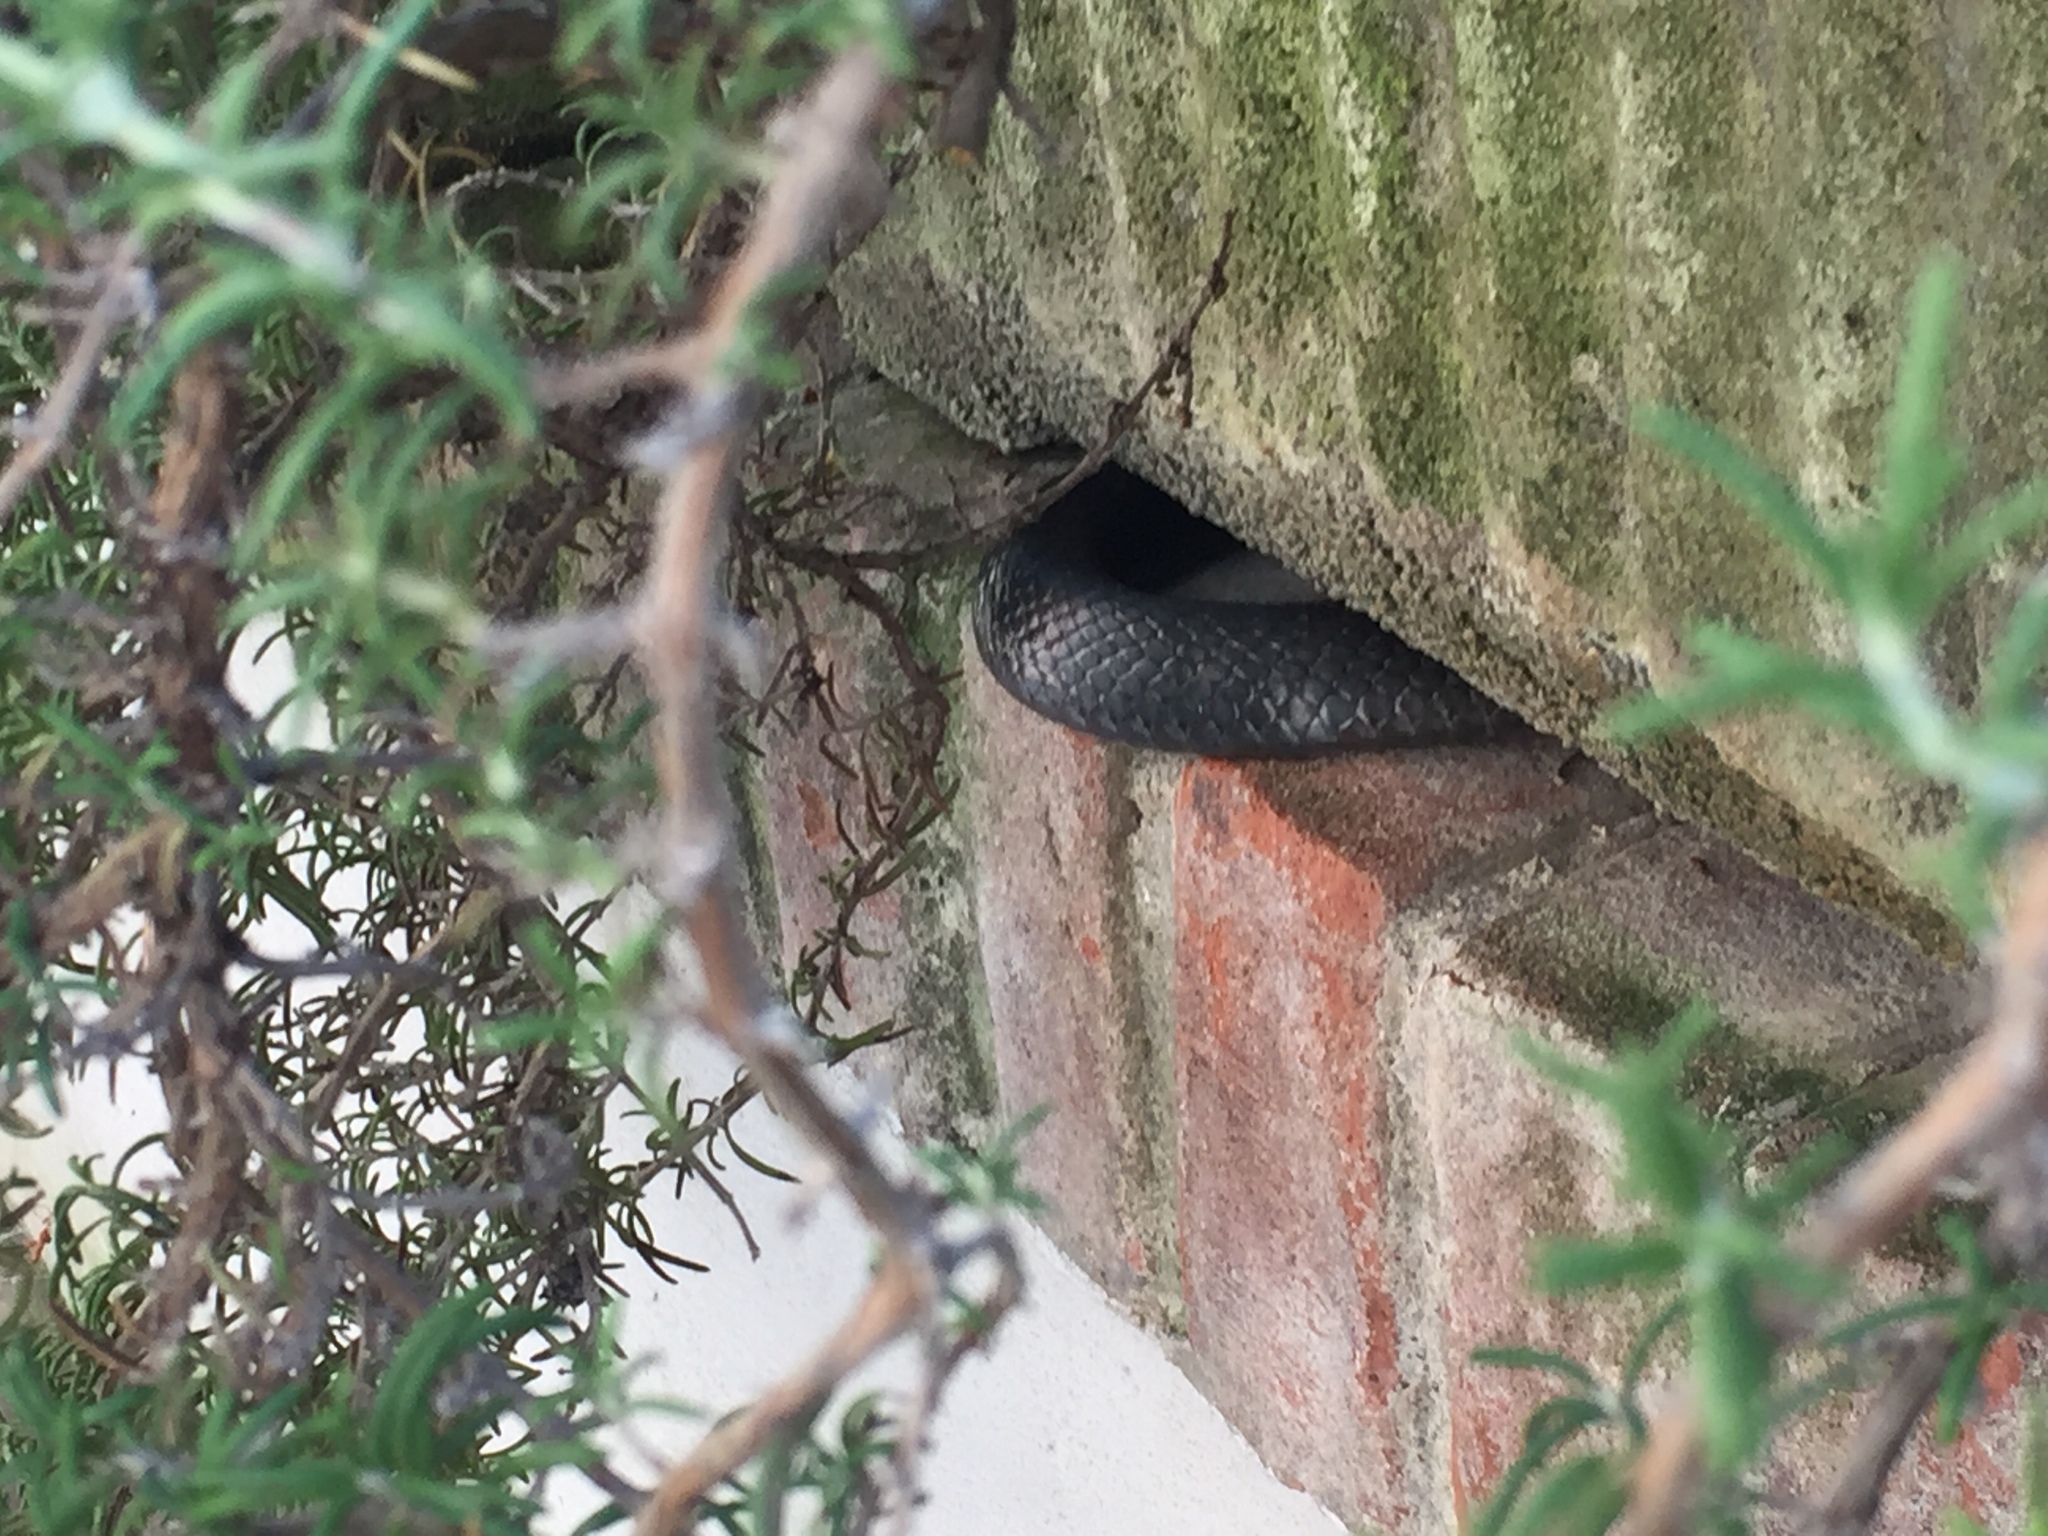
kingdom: Animalia
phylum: Chordata
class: Squamata
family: Colubridae
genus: Hierophis
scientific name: Hierophis viridiflavus
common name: Green whip snake
